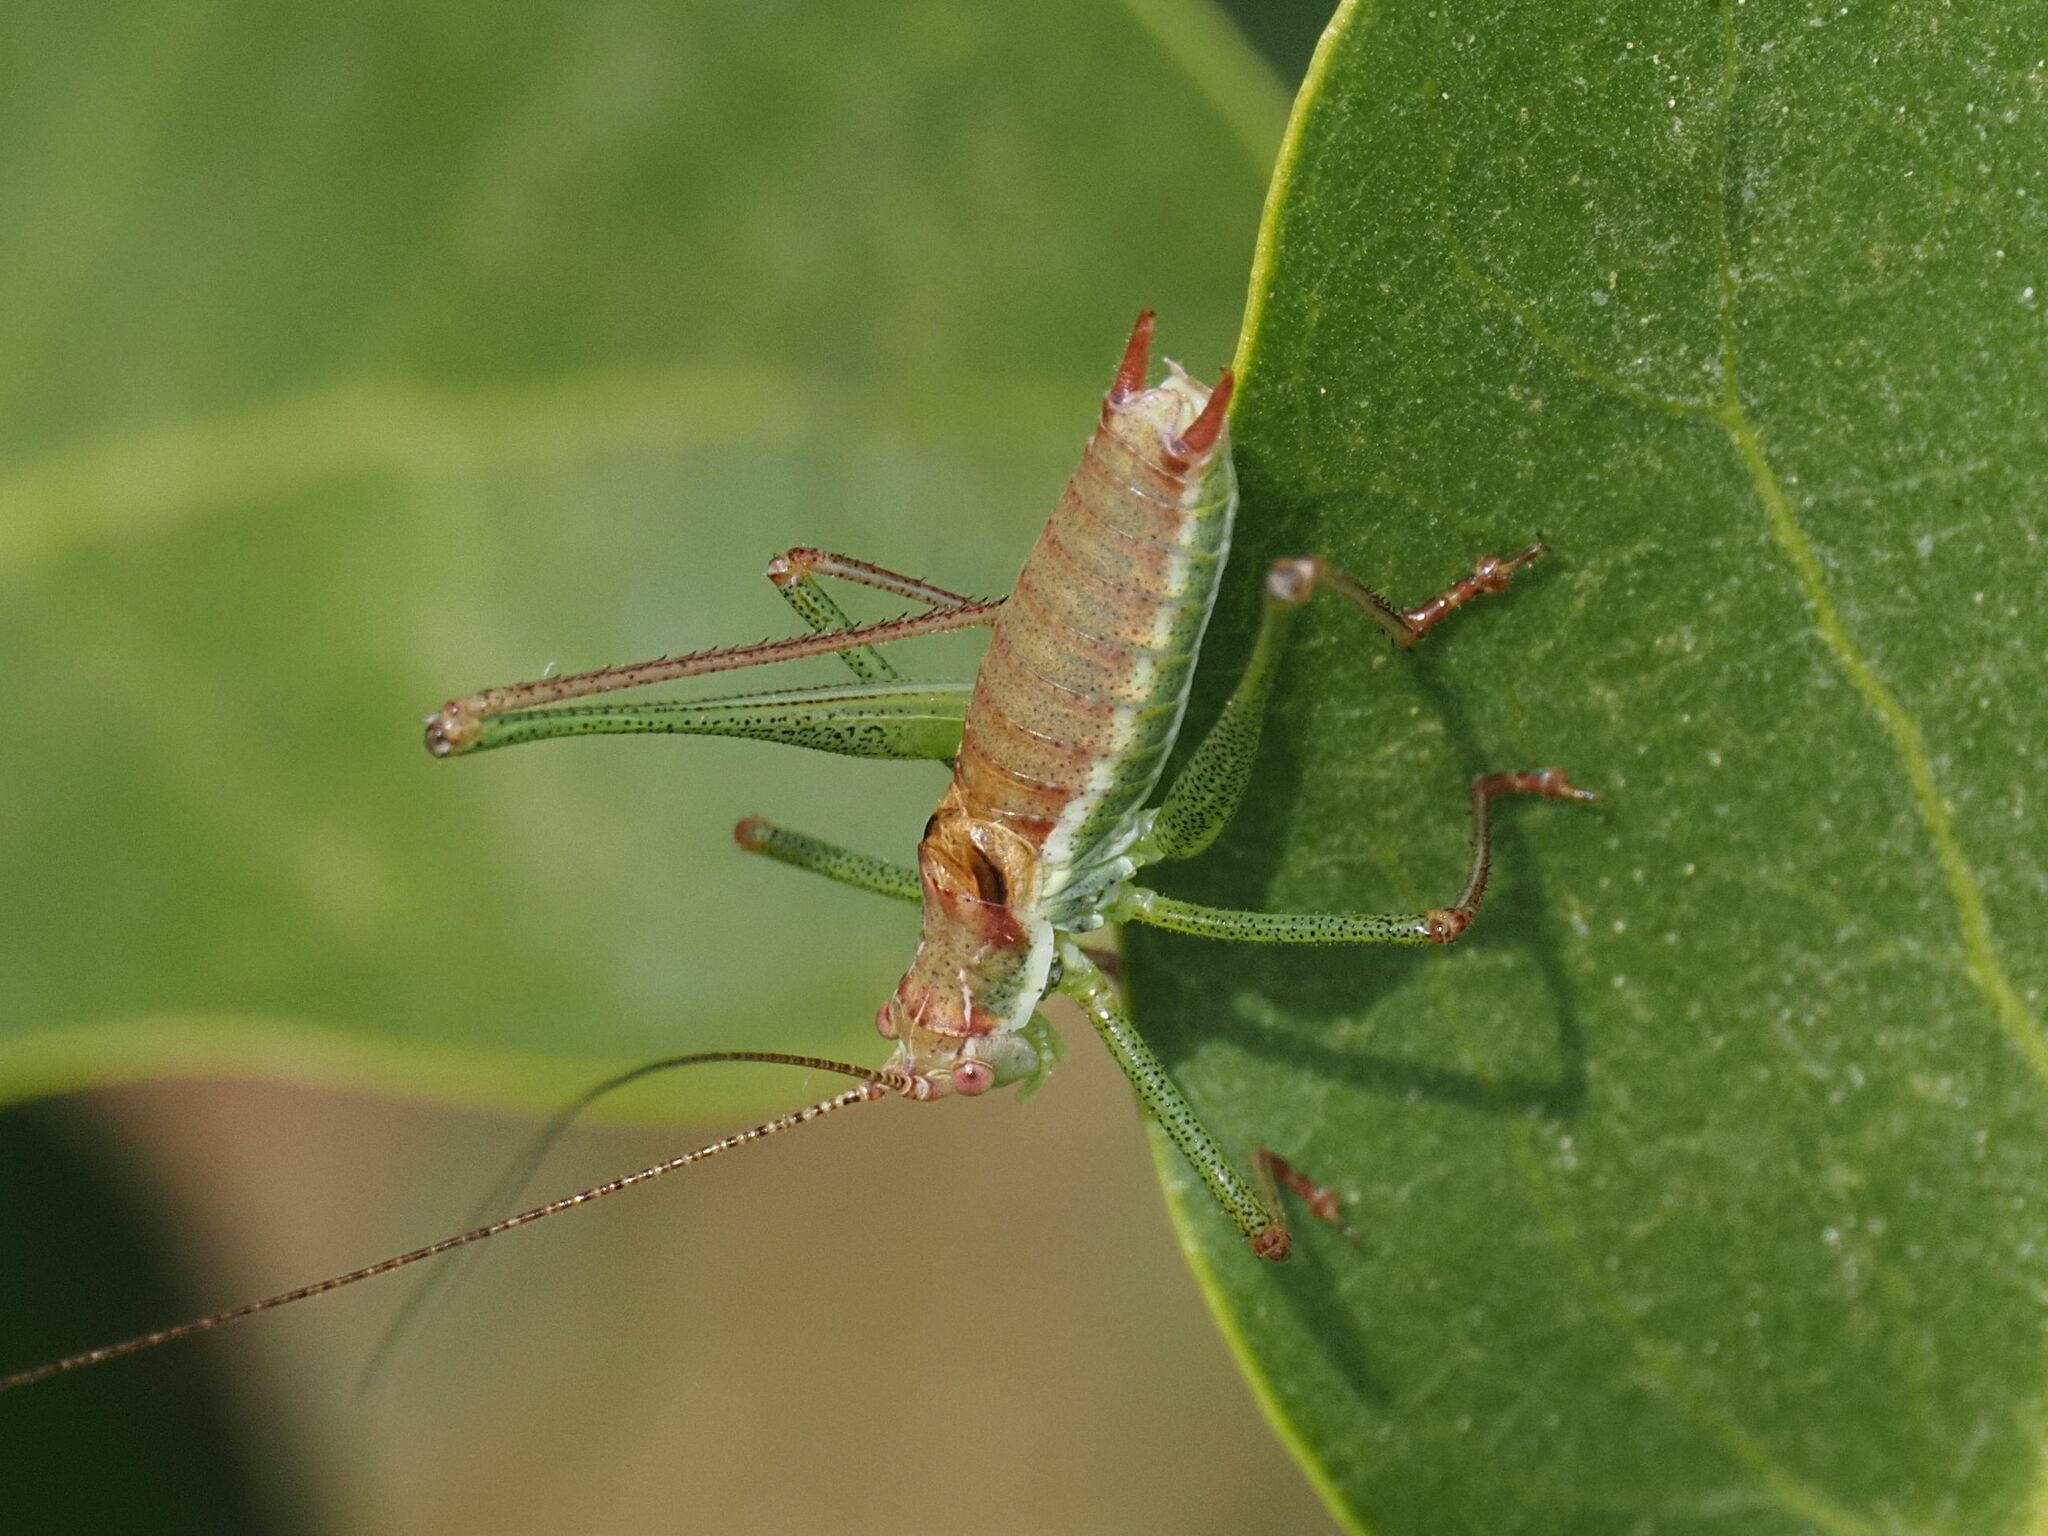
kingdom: Animalia
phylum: Arthropoda
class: Insecta
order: Orthoptera
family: Tettigoniidae
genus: Leptophyes
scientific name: Leptophyes albovittata
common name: Striped bush-cricket
